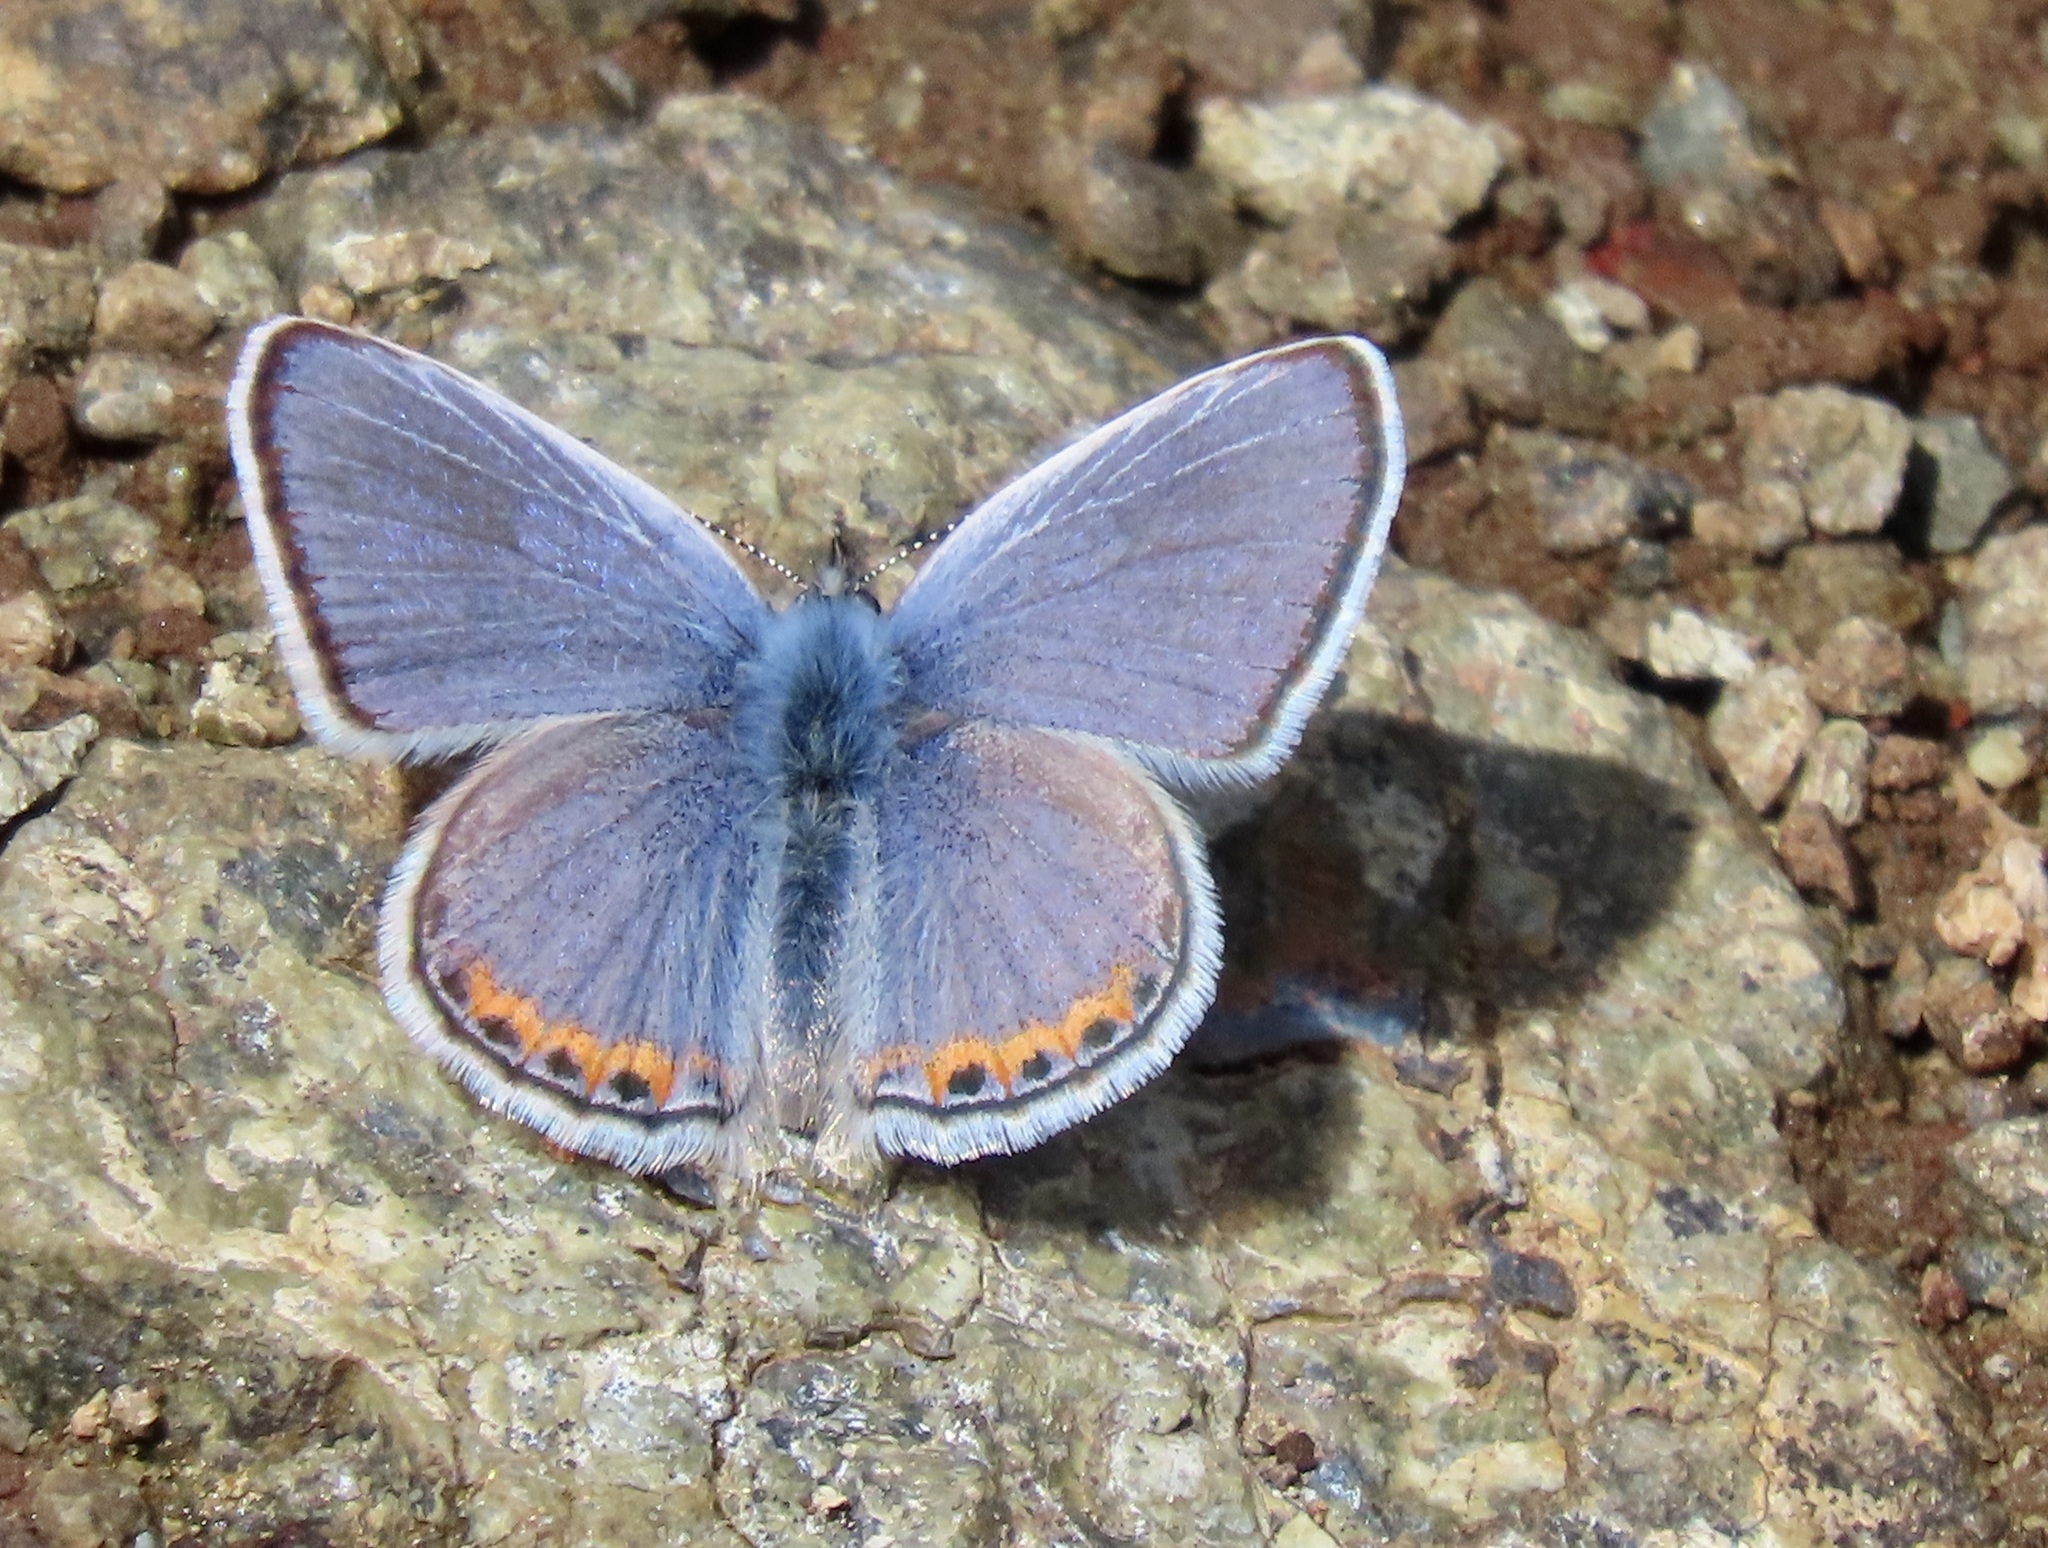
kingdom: Animalia
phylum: Arthropoda
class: Insecta
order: Lepidoptera
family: Lycaenidae
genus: Icaricia
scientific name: Icaricia acmon
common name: Acmon blue
